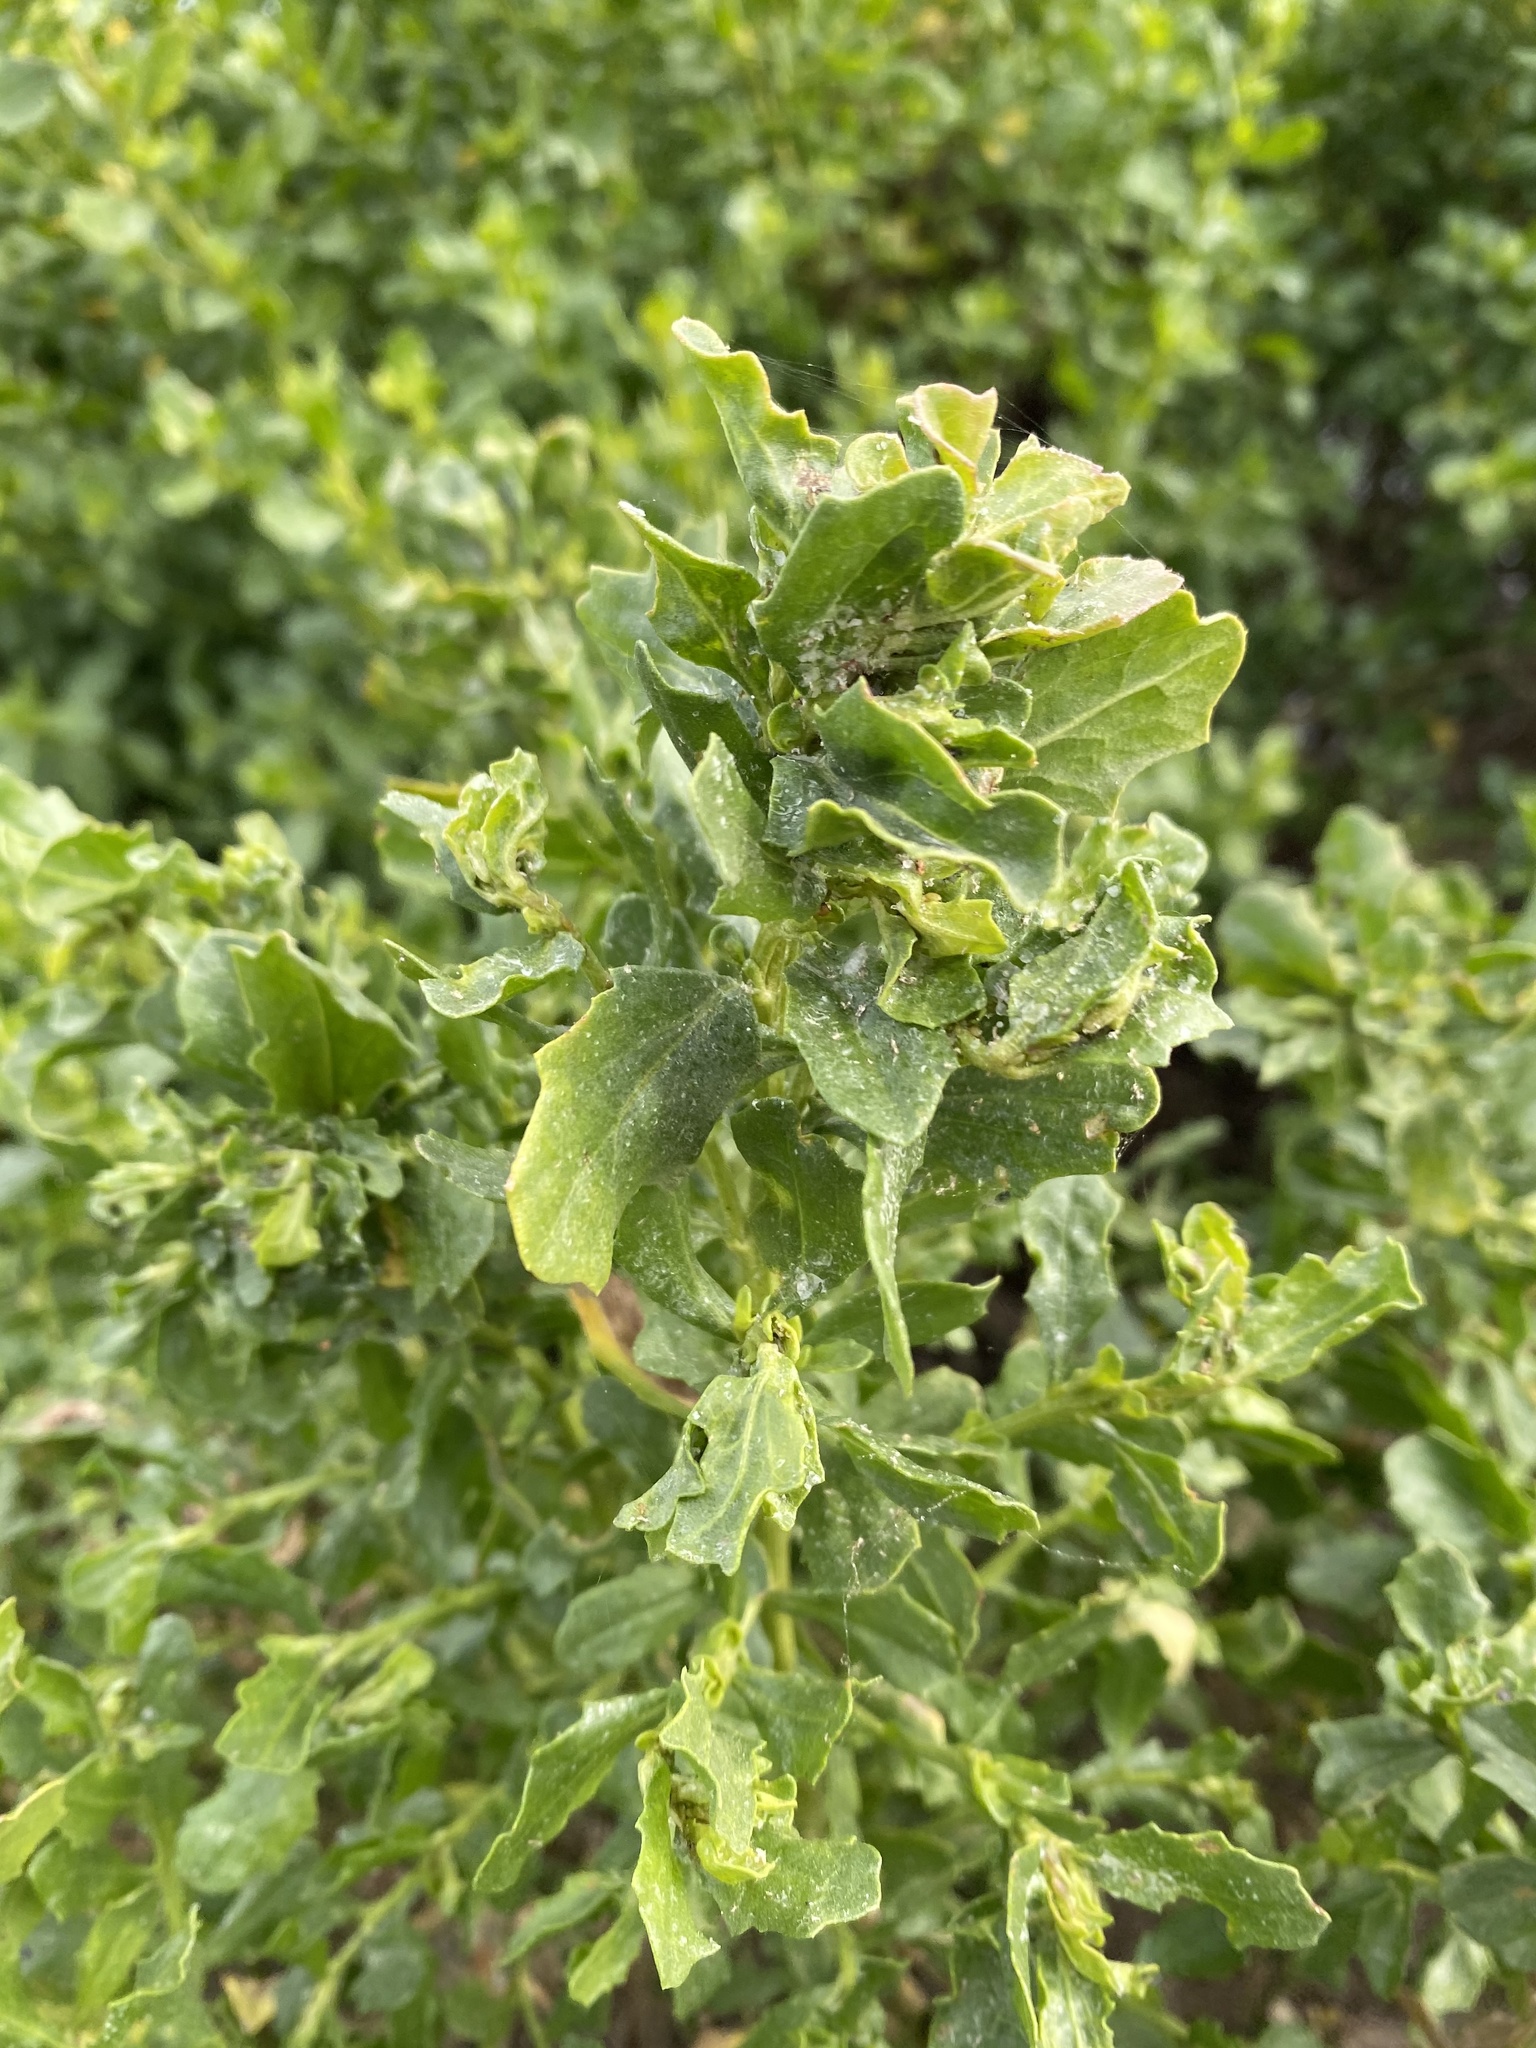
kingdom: Plantae
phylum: Tracheophyta
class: Magnoliopsida
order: Asterales
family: Asteraceae
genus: Baccharis
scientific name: Baccharis pilularis
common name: Coyotebrush
